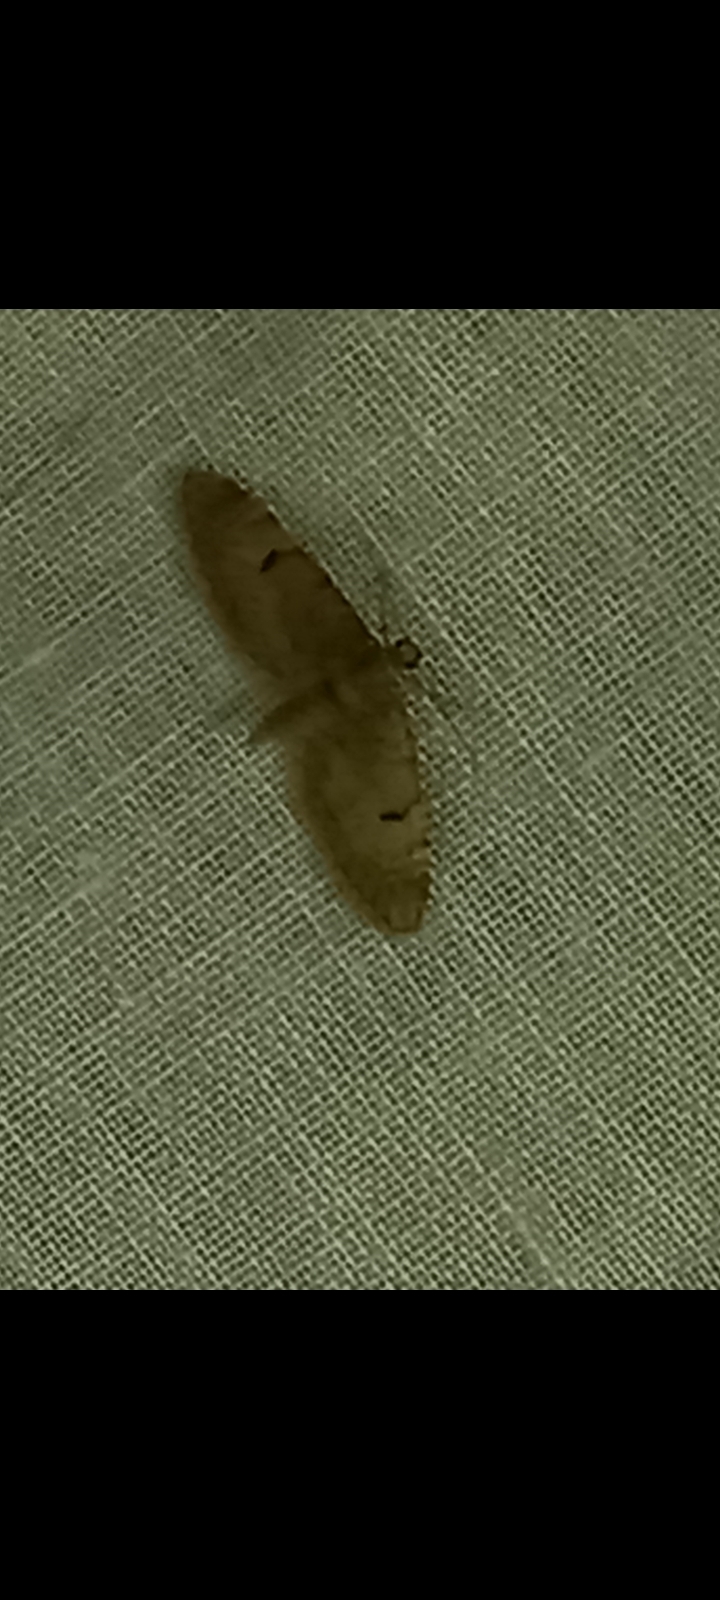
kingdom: Animalia
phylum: Arthropoda
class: Insecta
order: Lepidoptera
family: Geometridae
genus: Eupithecia
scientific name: Eupithecia indigata
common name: Ochreous pug
